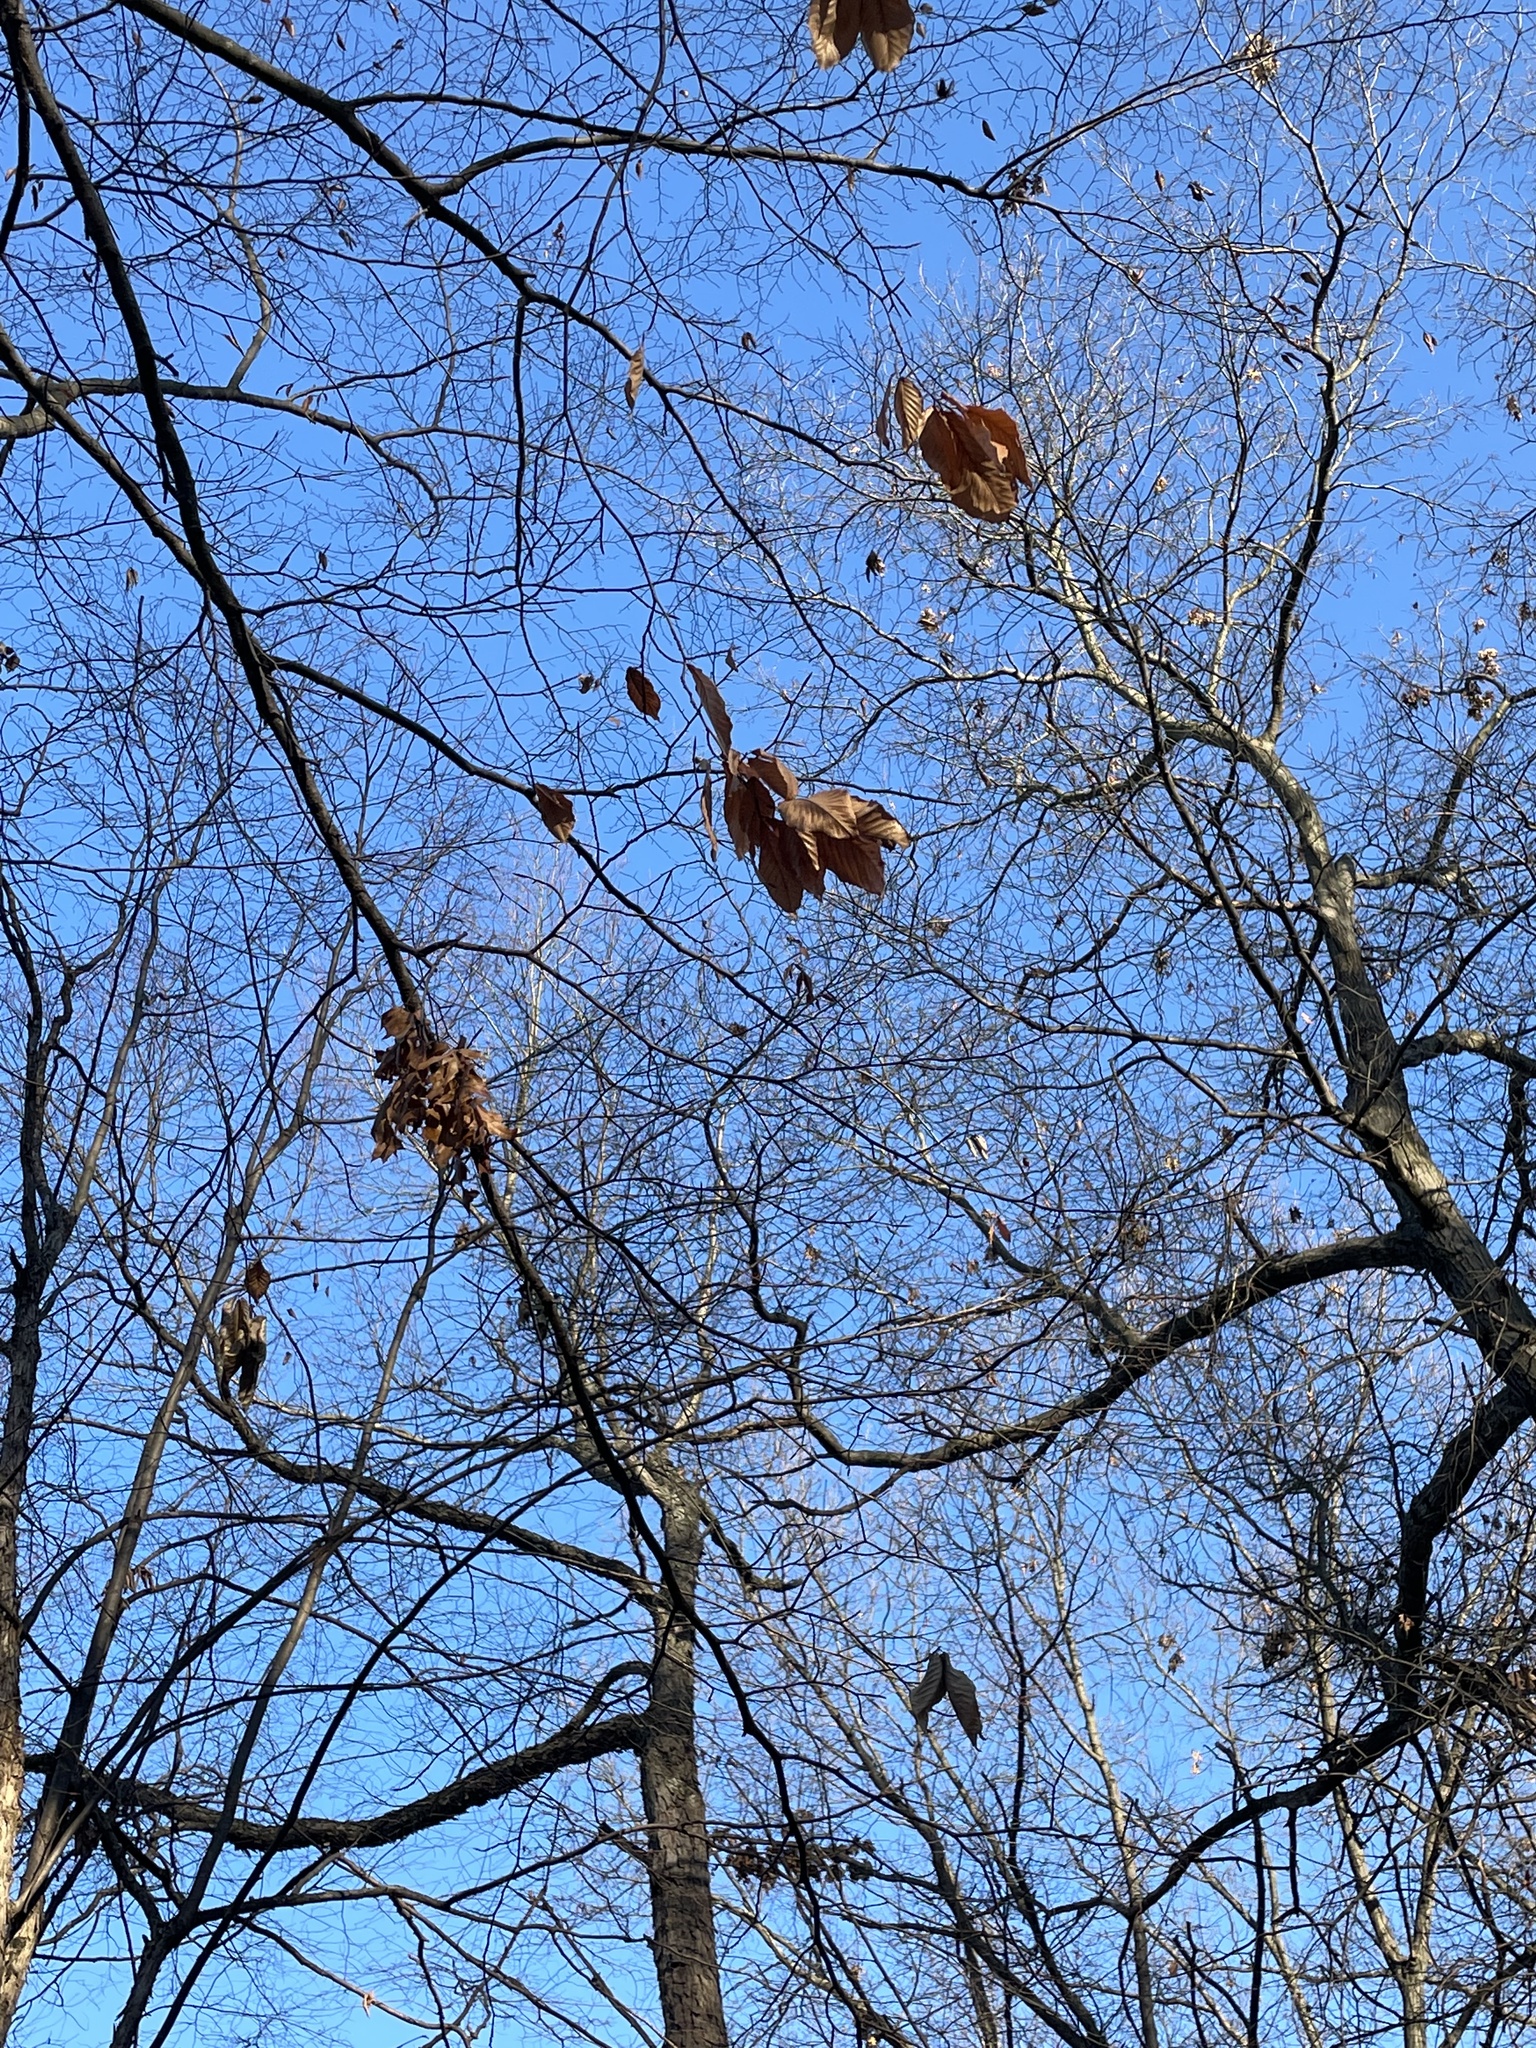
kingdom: Plantae
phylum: Tracheophyta
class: Magnoliopsida
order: Fagales
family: Fagaceae
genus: Fagus
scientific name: Fagus grandifolia
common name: American beech
